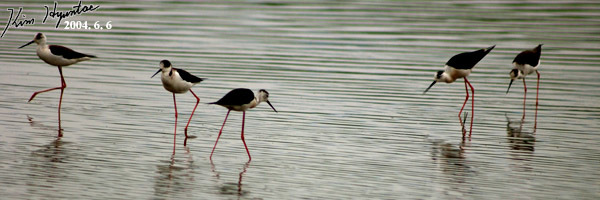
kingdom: Animalia
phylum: Chordata
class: Aves
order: Charadriiformes
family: Recurvirostridae
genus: Himantopus
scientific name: Himantopus himantopus
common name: Black-winged stilt
